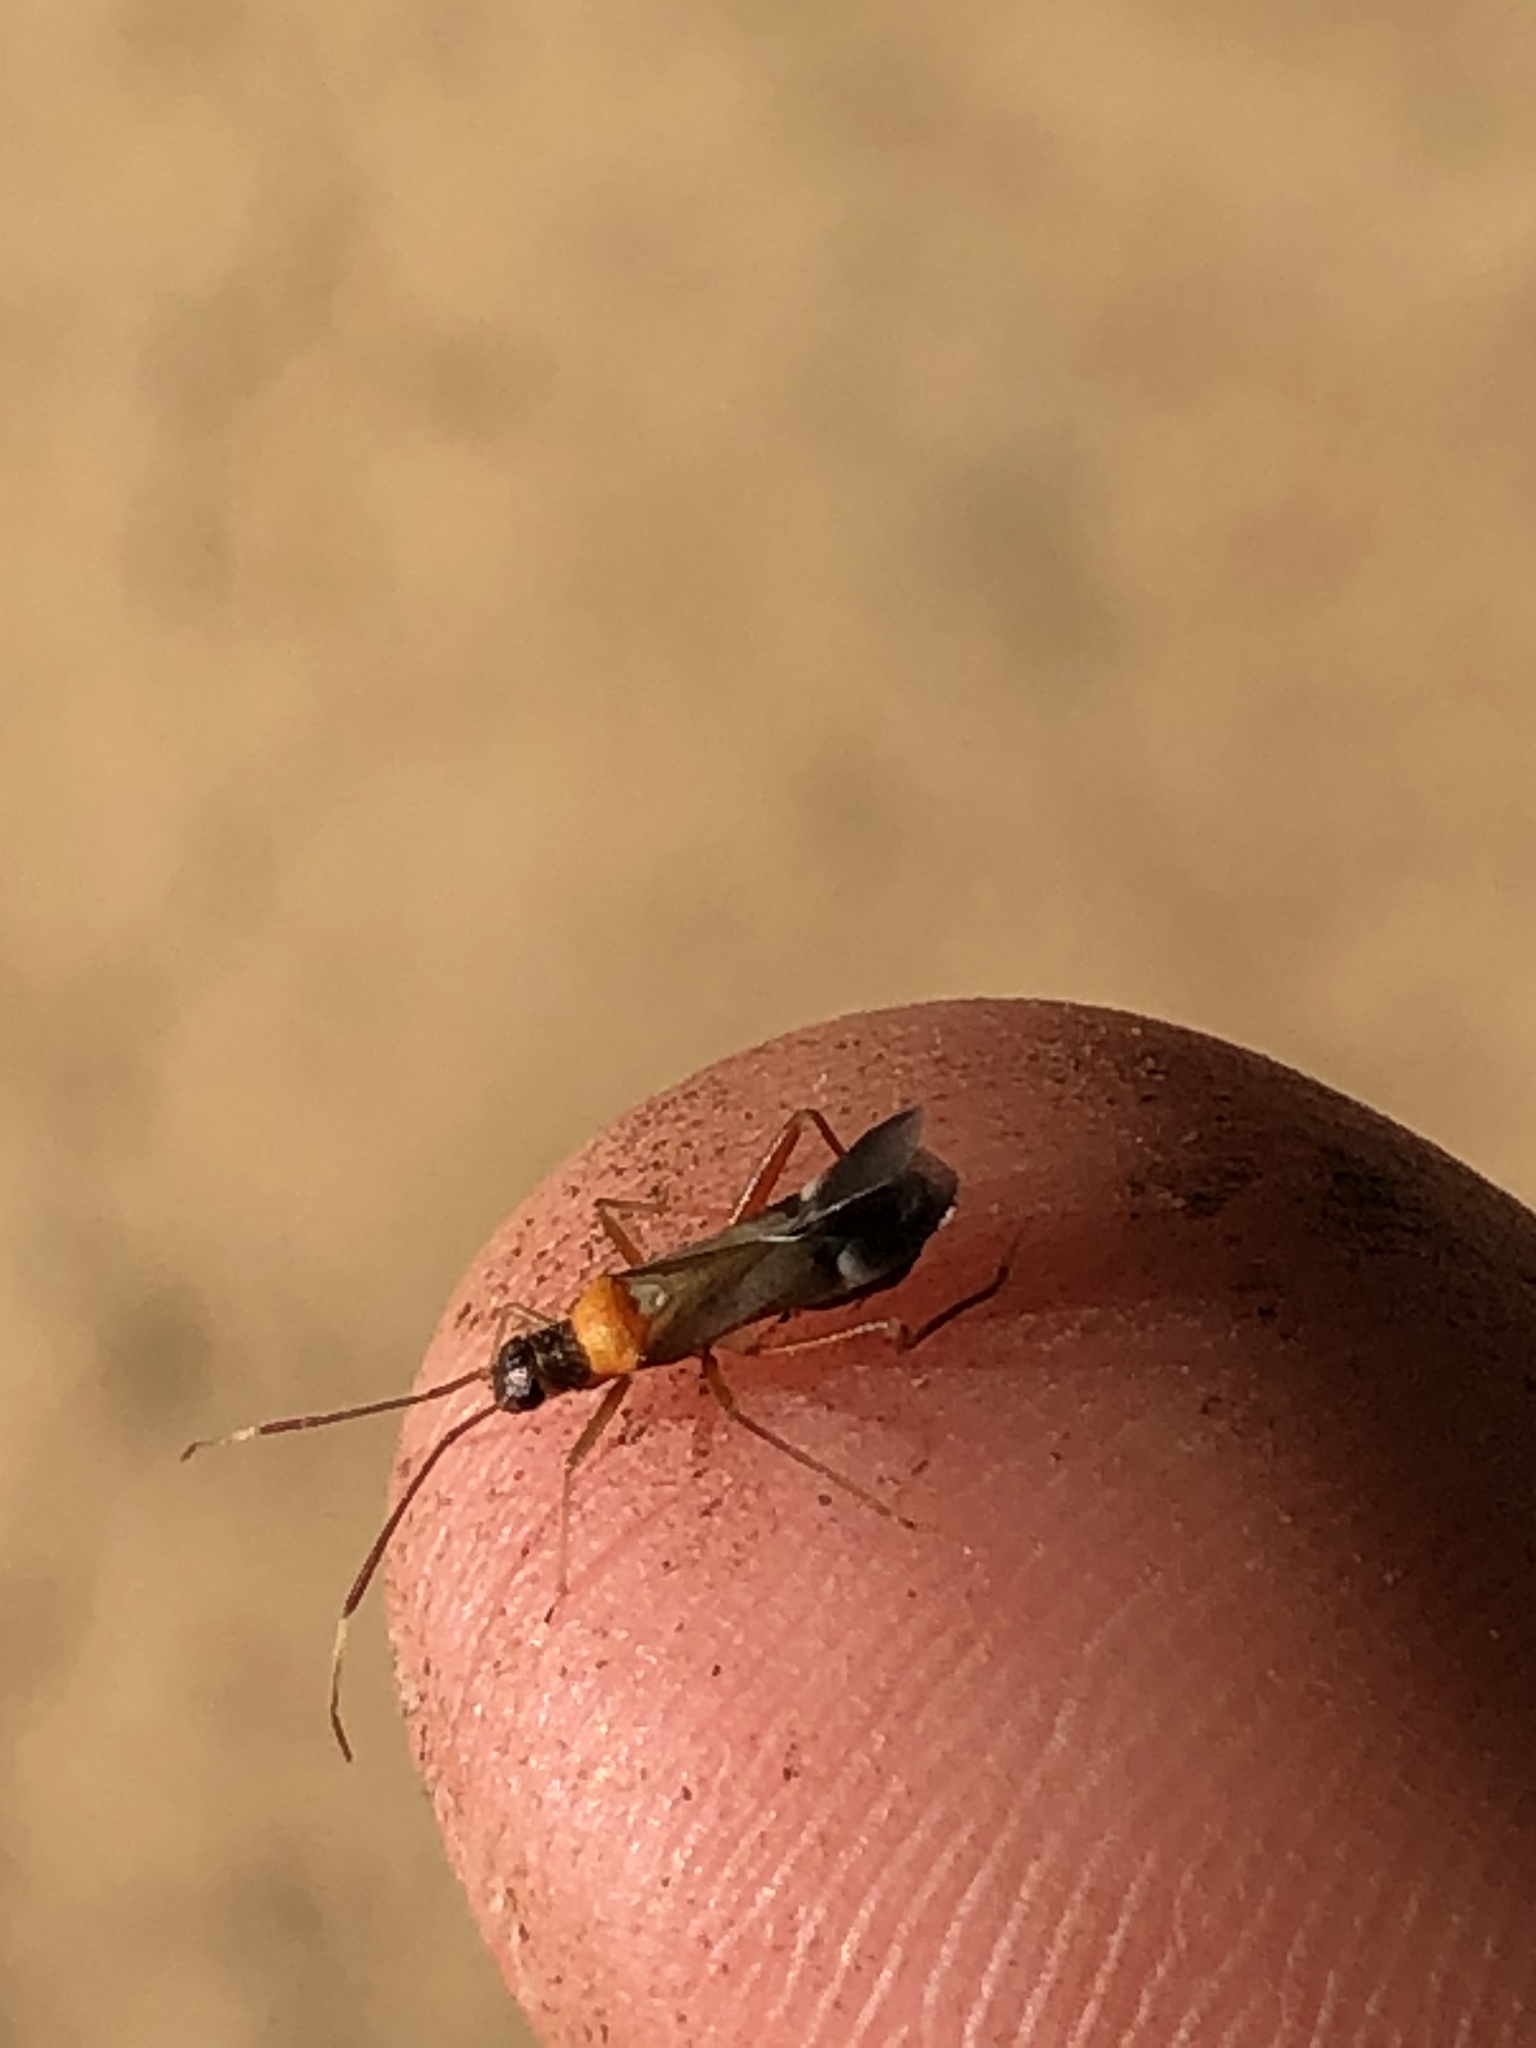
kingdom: Animalia
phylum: Arthropoda
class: Insecta
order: Hemiptera
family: Miridae
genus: Pseudoxenetus
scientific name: Pseudoxenetus regalis
